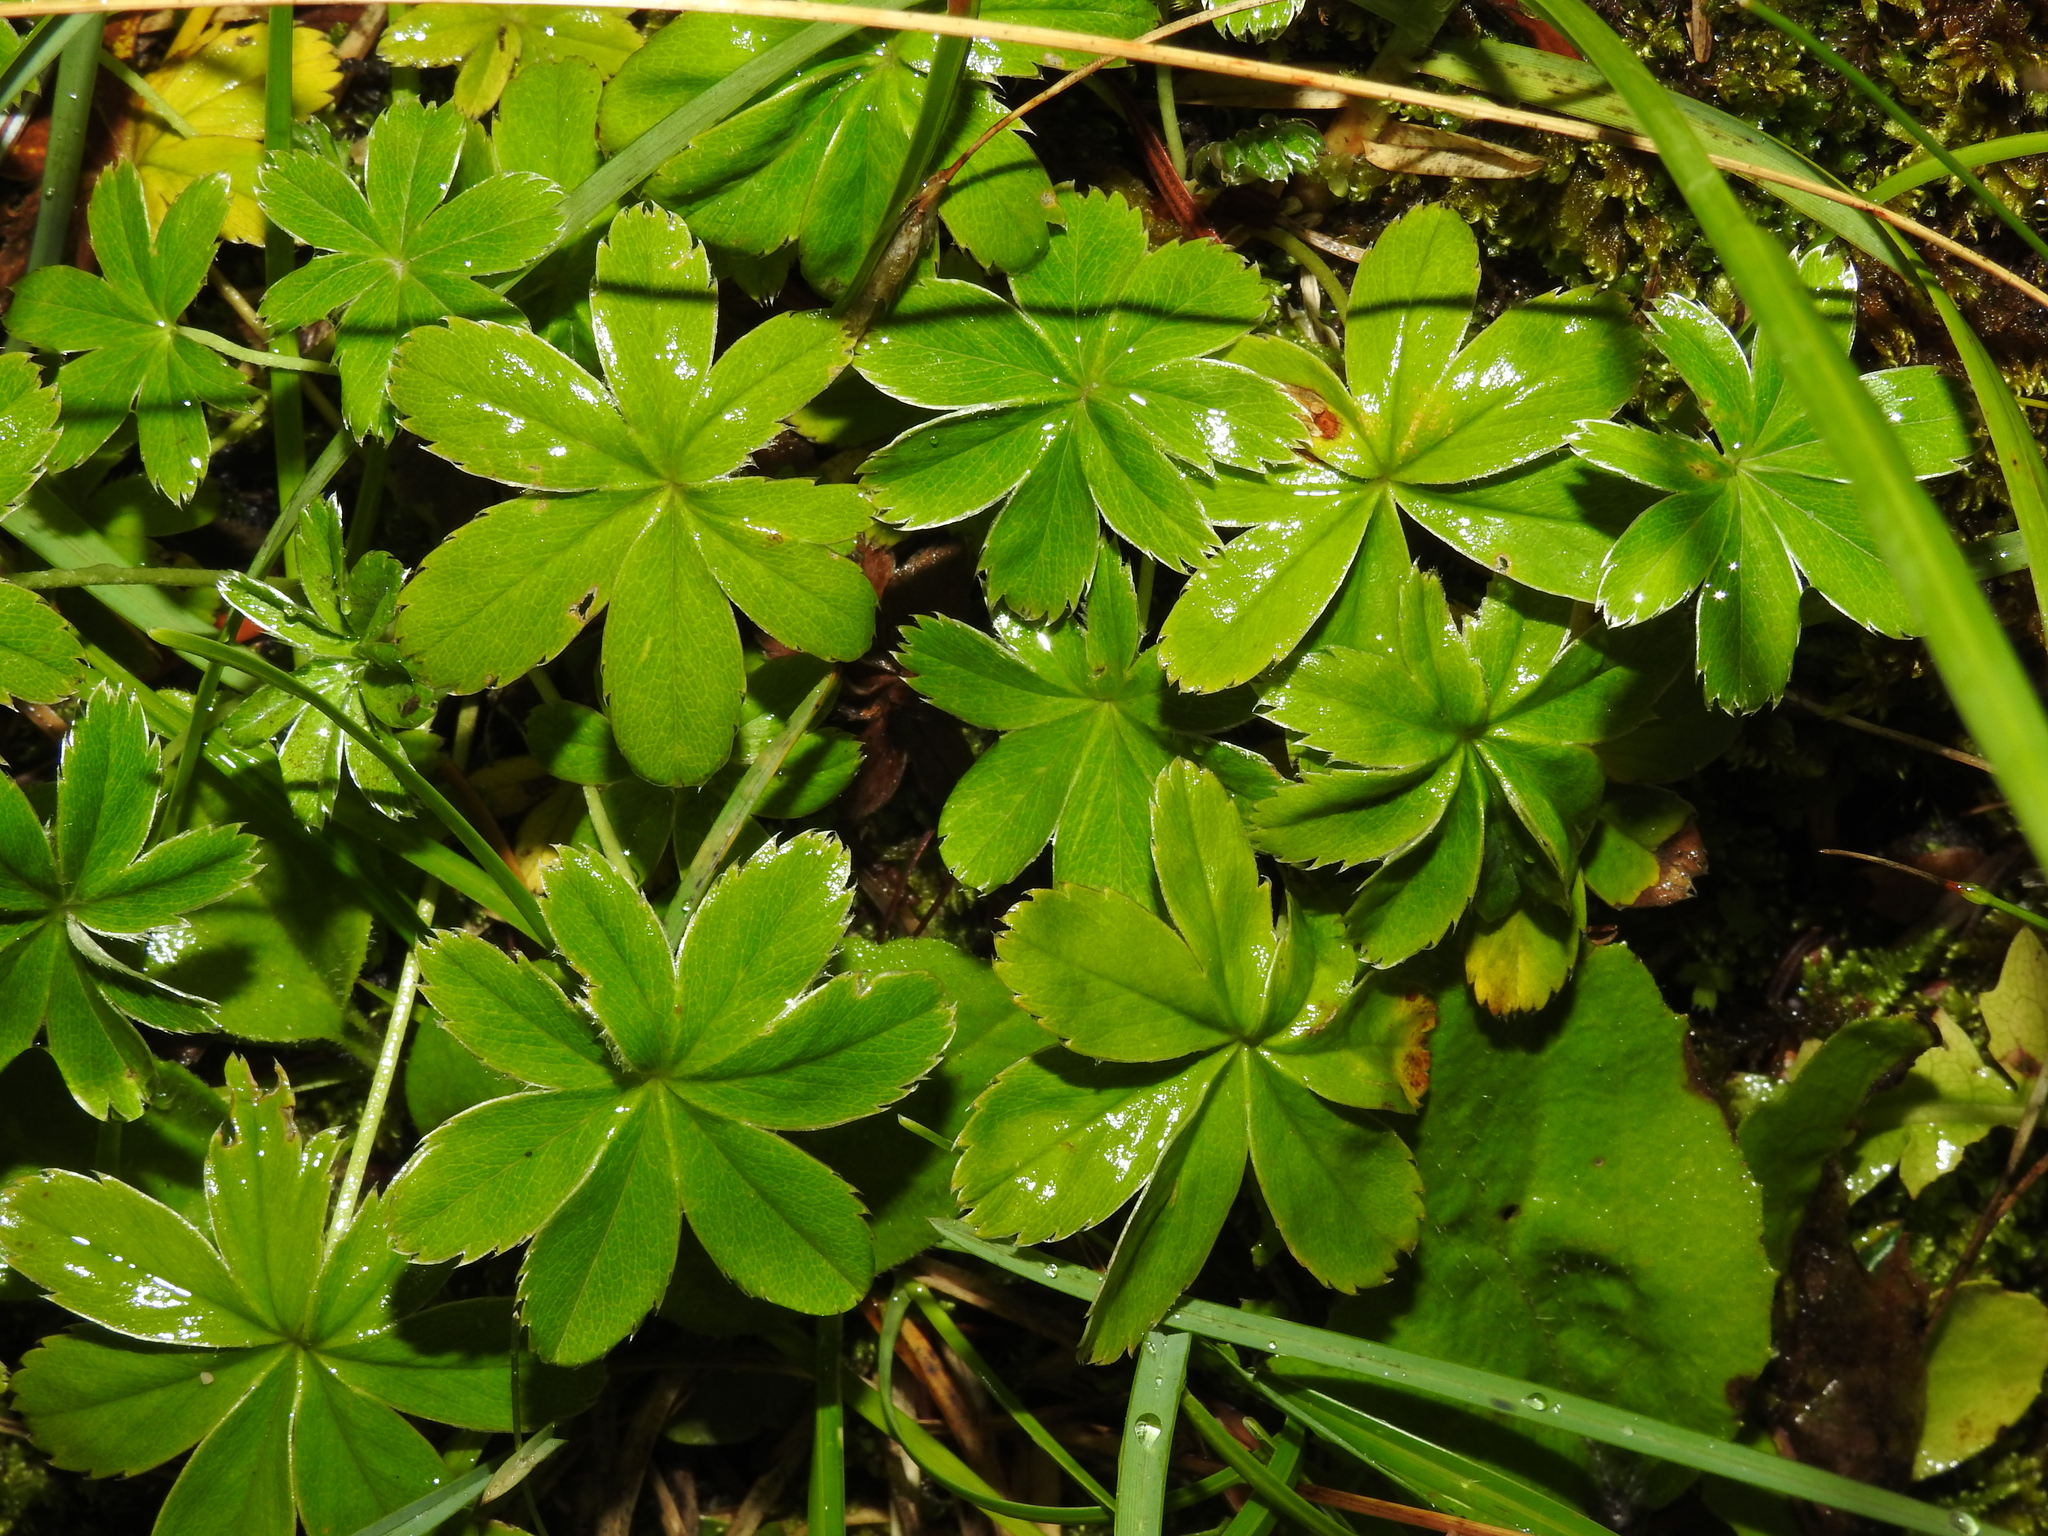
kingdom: Plantae
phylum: Tracheophyta
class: Magnoliopsida
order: Rosales
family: Rosaceae
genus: Alchemilla
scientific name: Alchemilla pallens
